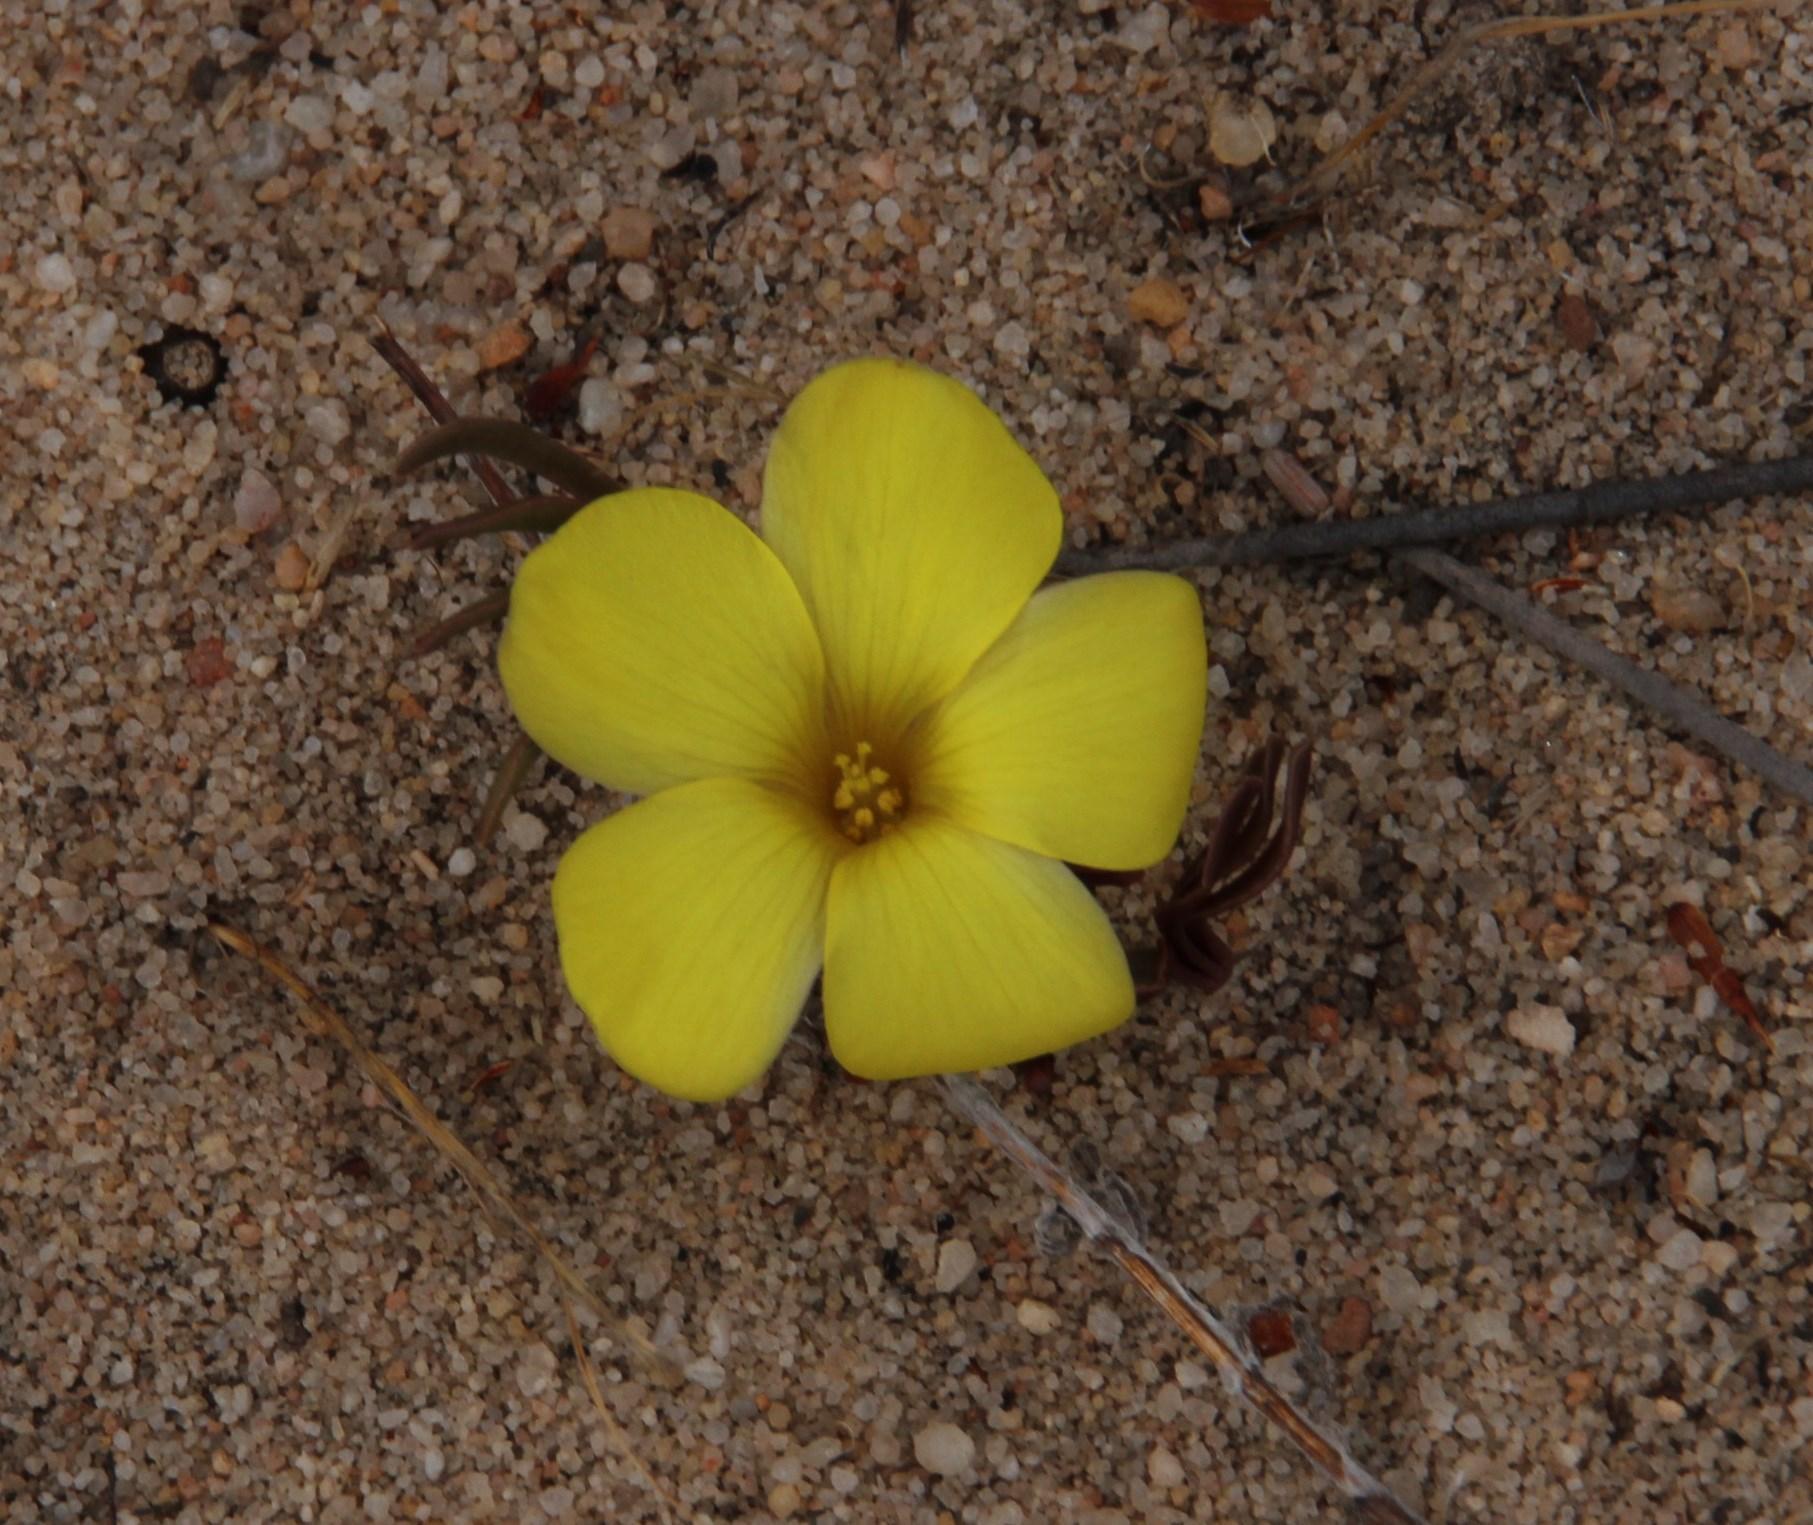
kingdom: Plantae
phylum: Tracheophyta
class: Magnoliopsida
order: Oxalidales
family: Oxalidaceae
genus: Oxalis
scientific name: Oxalis flava
